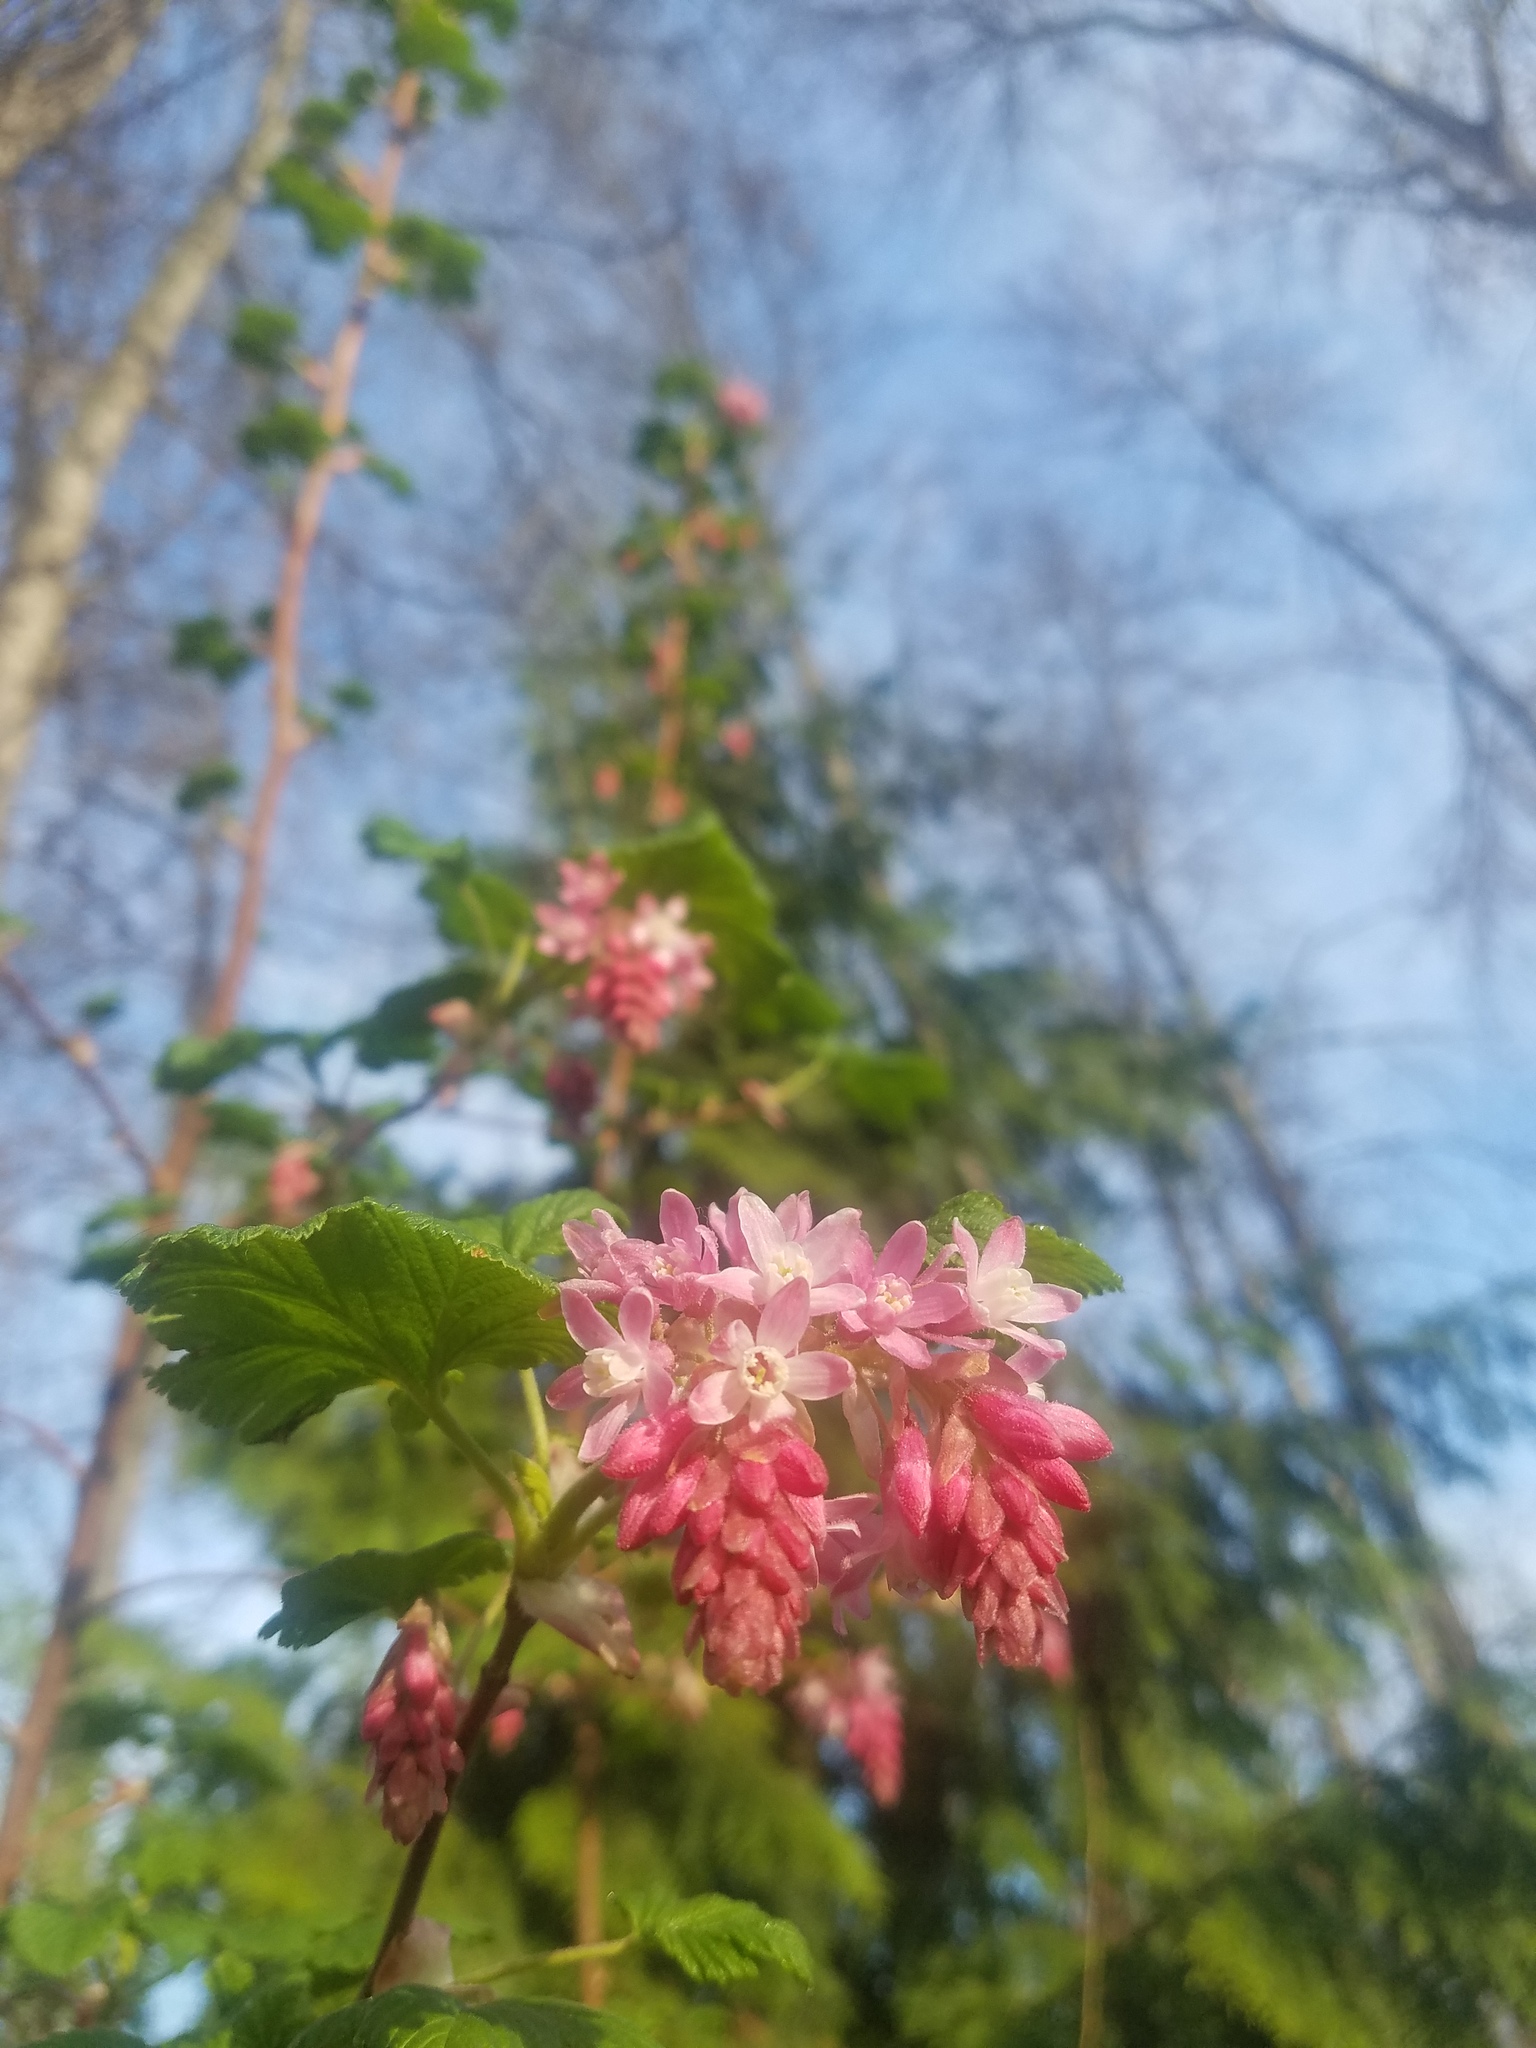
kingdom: Plantae
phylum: Tracheophyta
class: Magnoliopsida
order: Saxifragales
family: Grossulariaceae
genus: Ribes
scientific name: Ribes sanguineum
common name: Flowering currant
